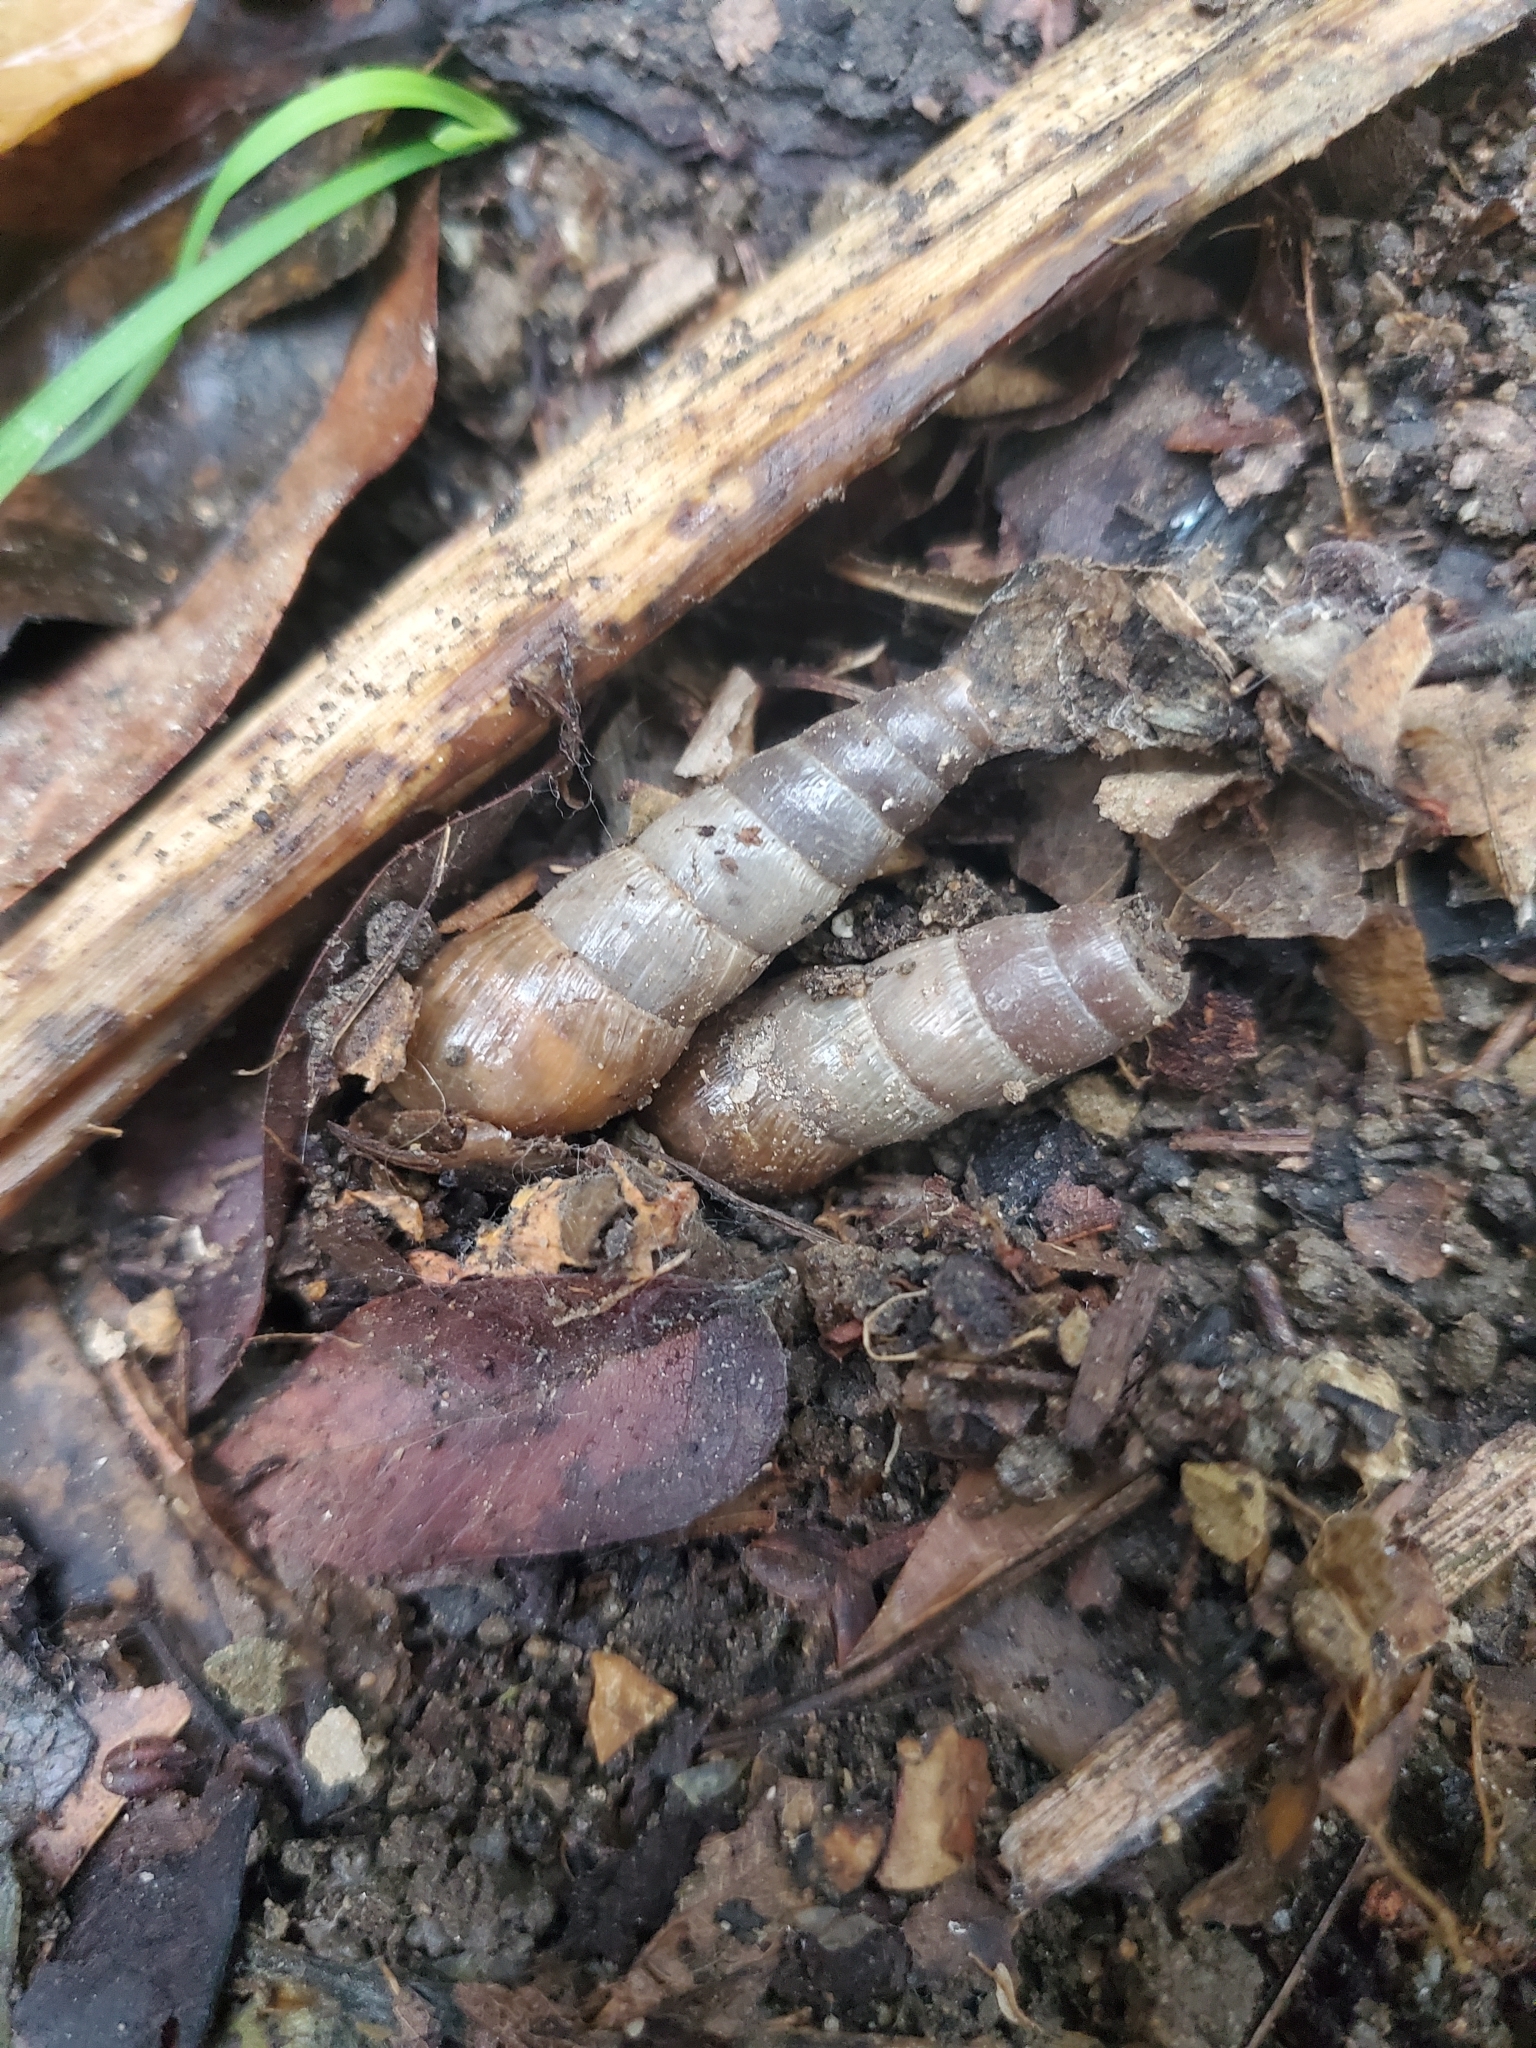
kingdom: Animalia
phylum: Mollusca
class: Gastropoda
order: Stylommatophora
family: Achatinidae
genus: Rumina
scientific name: Rumina decollata
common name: Decollate snail
